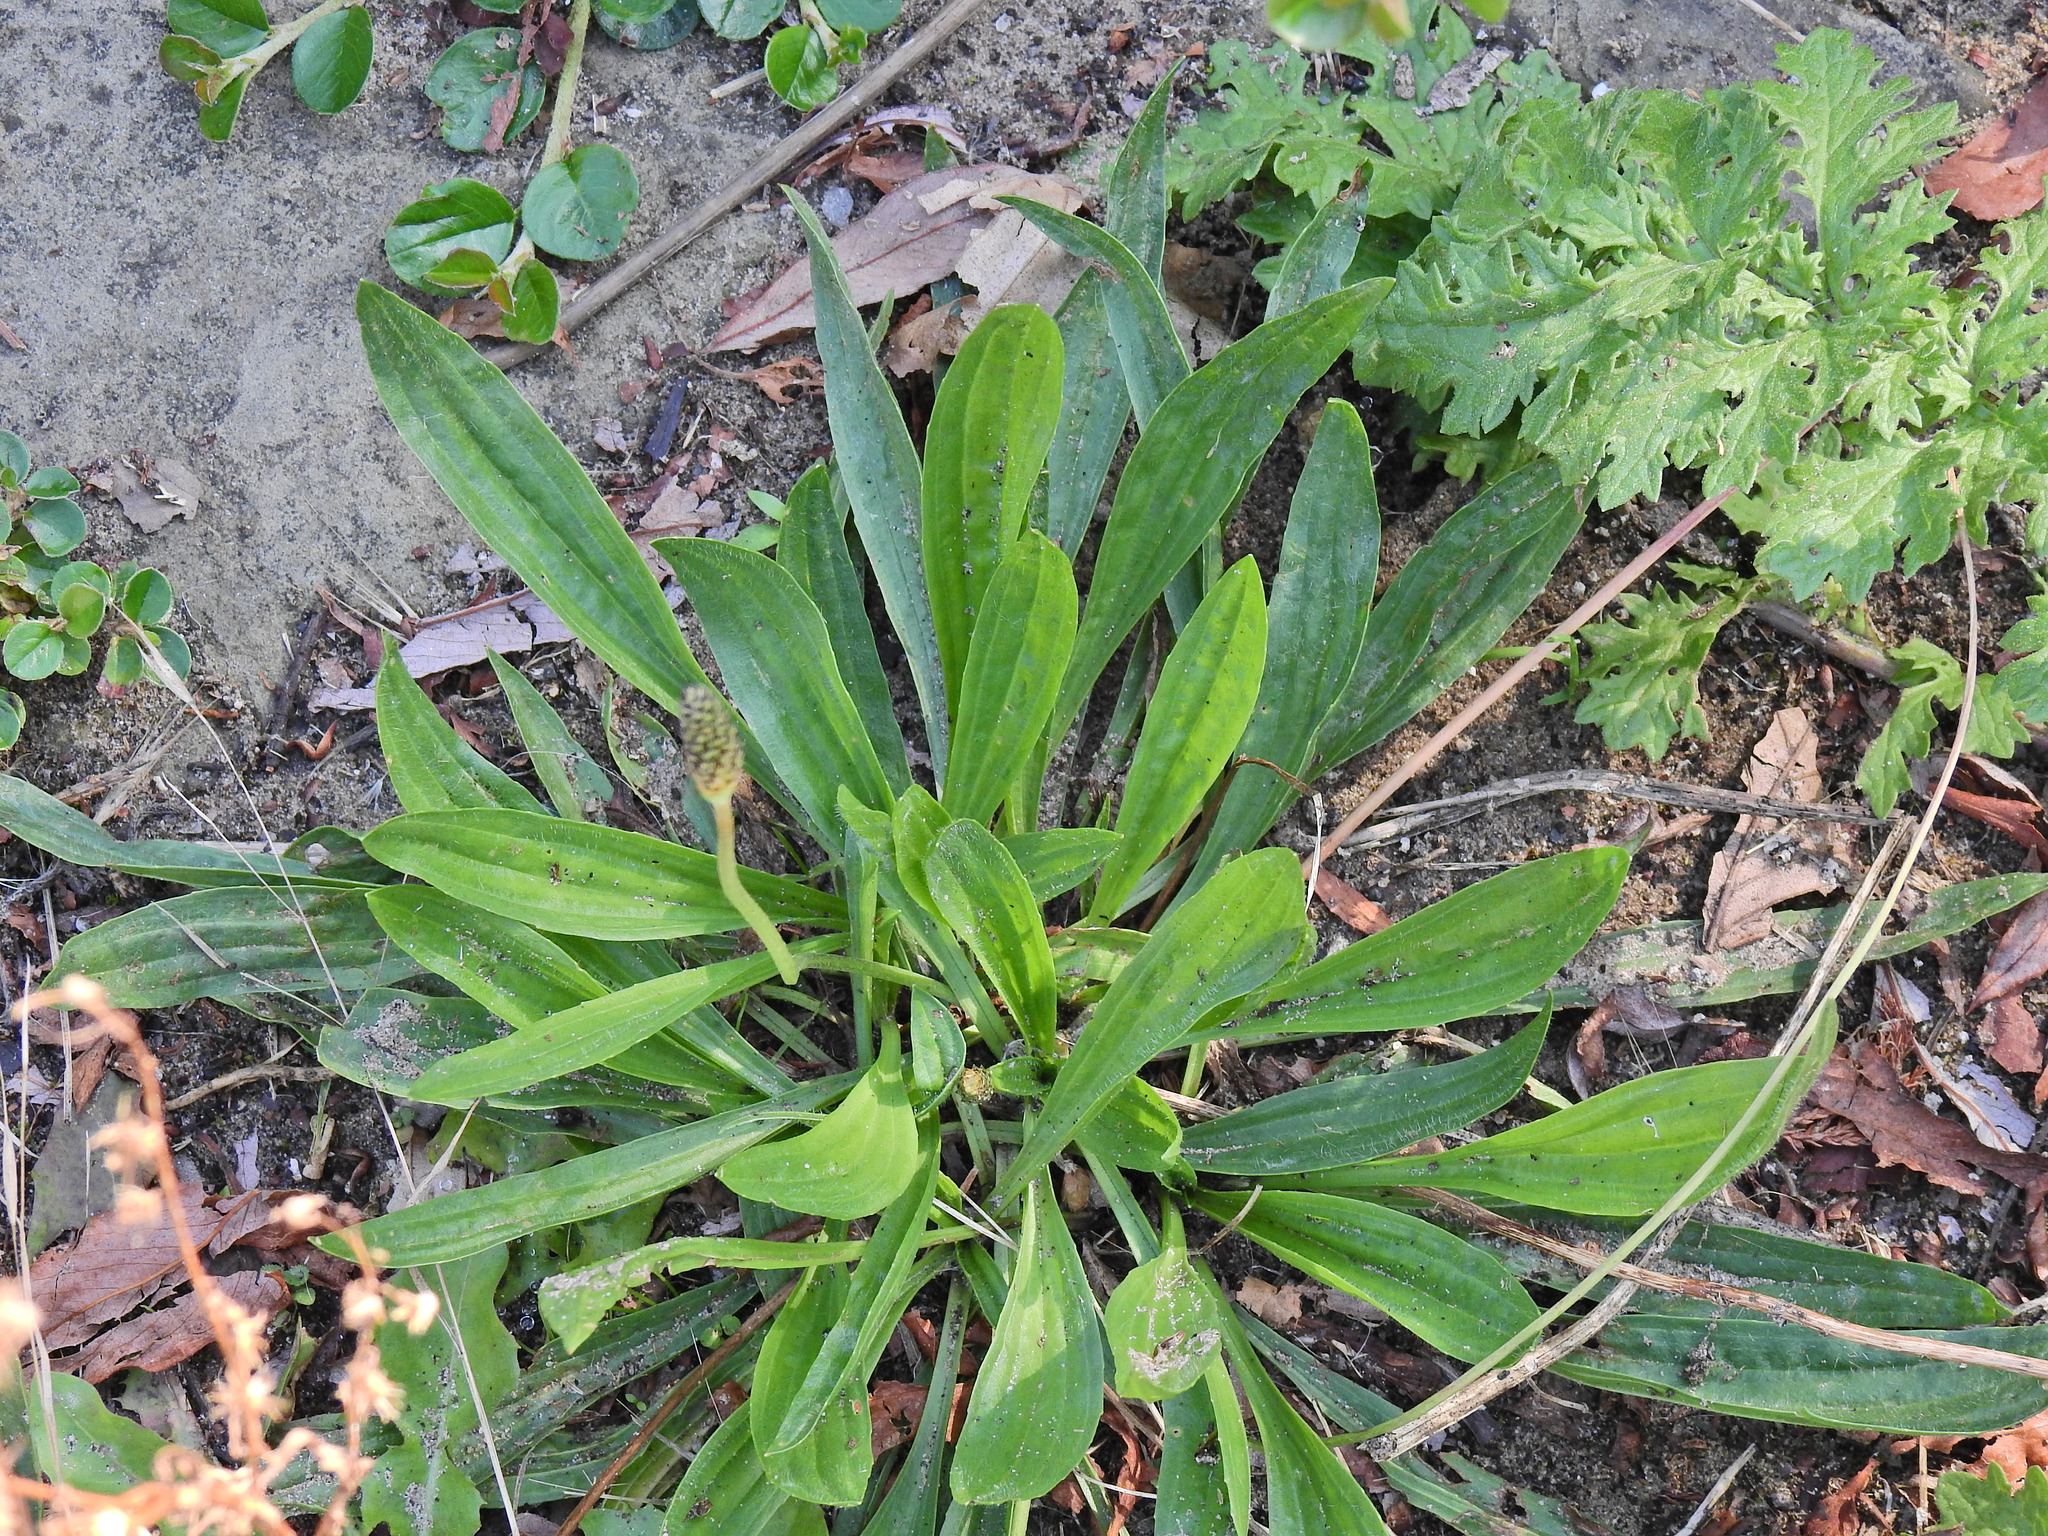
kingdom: Plantae
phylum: Tracheophyta
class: Magnoliopsida
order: Lamiales
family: Plantaginaceae
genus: Plantago
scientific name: Plantago lanceolata
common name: Ribwort plantain
